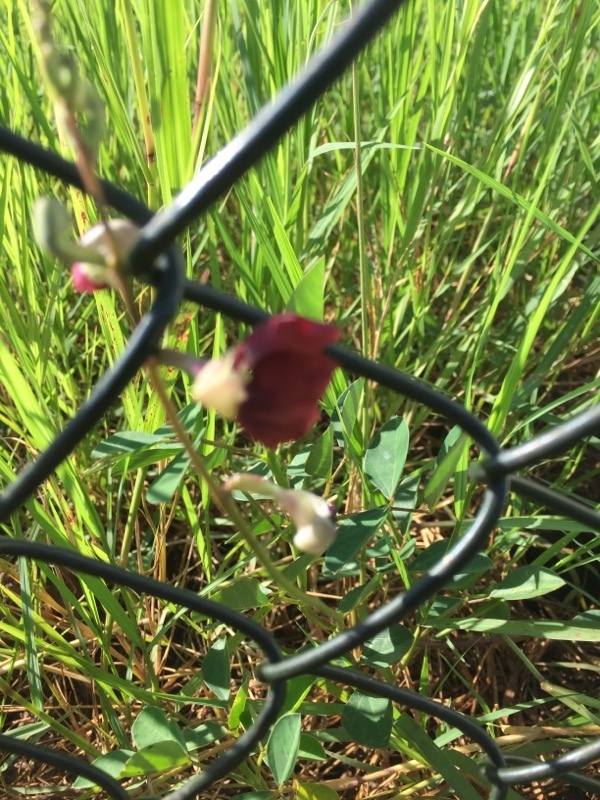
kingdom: Plantae
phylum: Tracheophyta
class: Magnoliopsida
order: Fabales
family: Fabaceae
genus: Macroptilium
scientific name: Macroptilium lathyroides
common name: Wild bushbean
